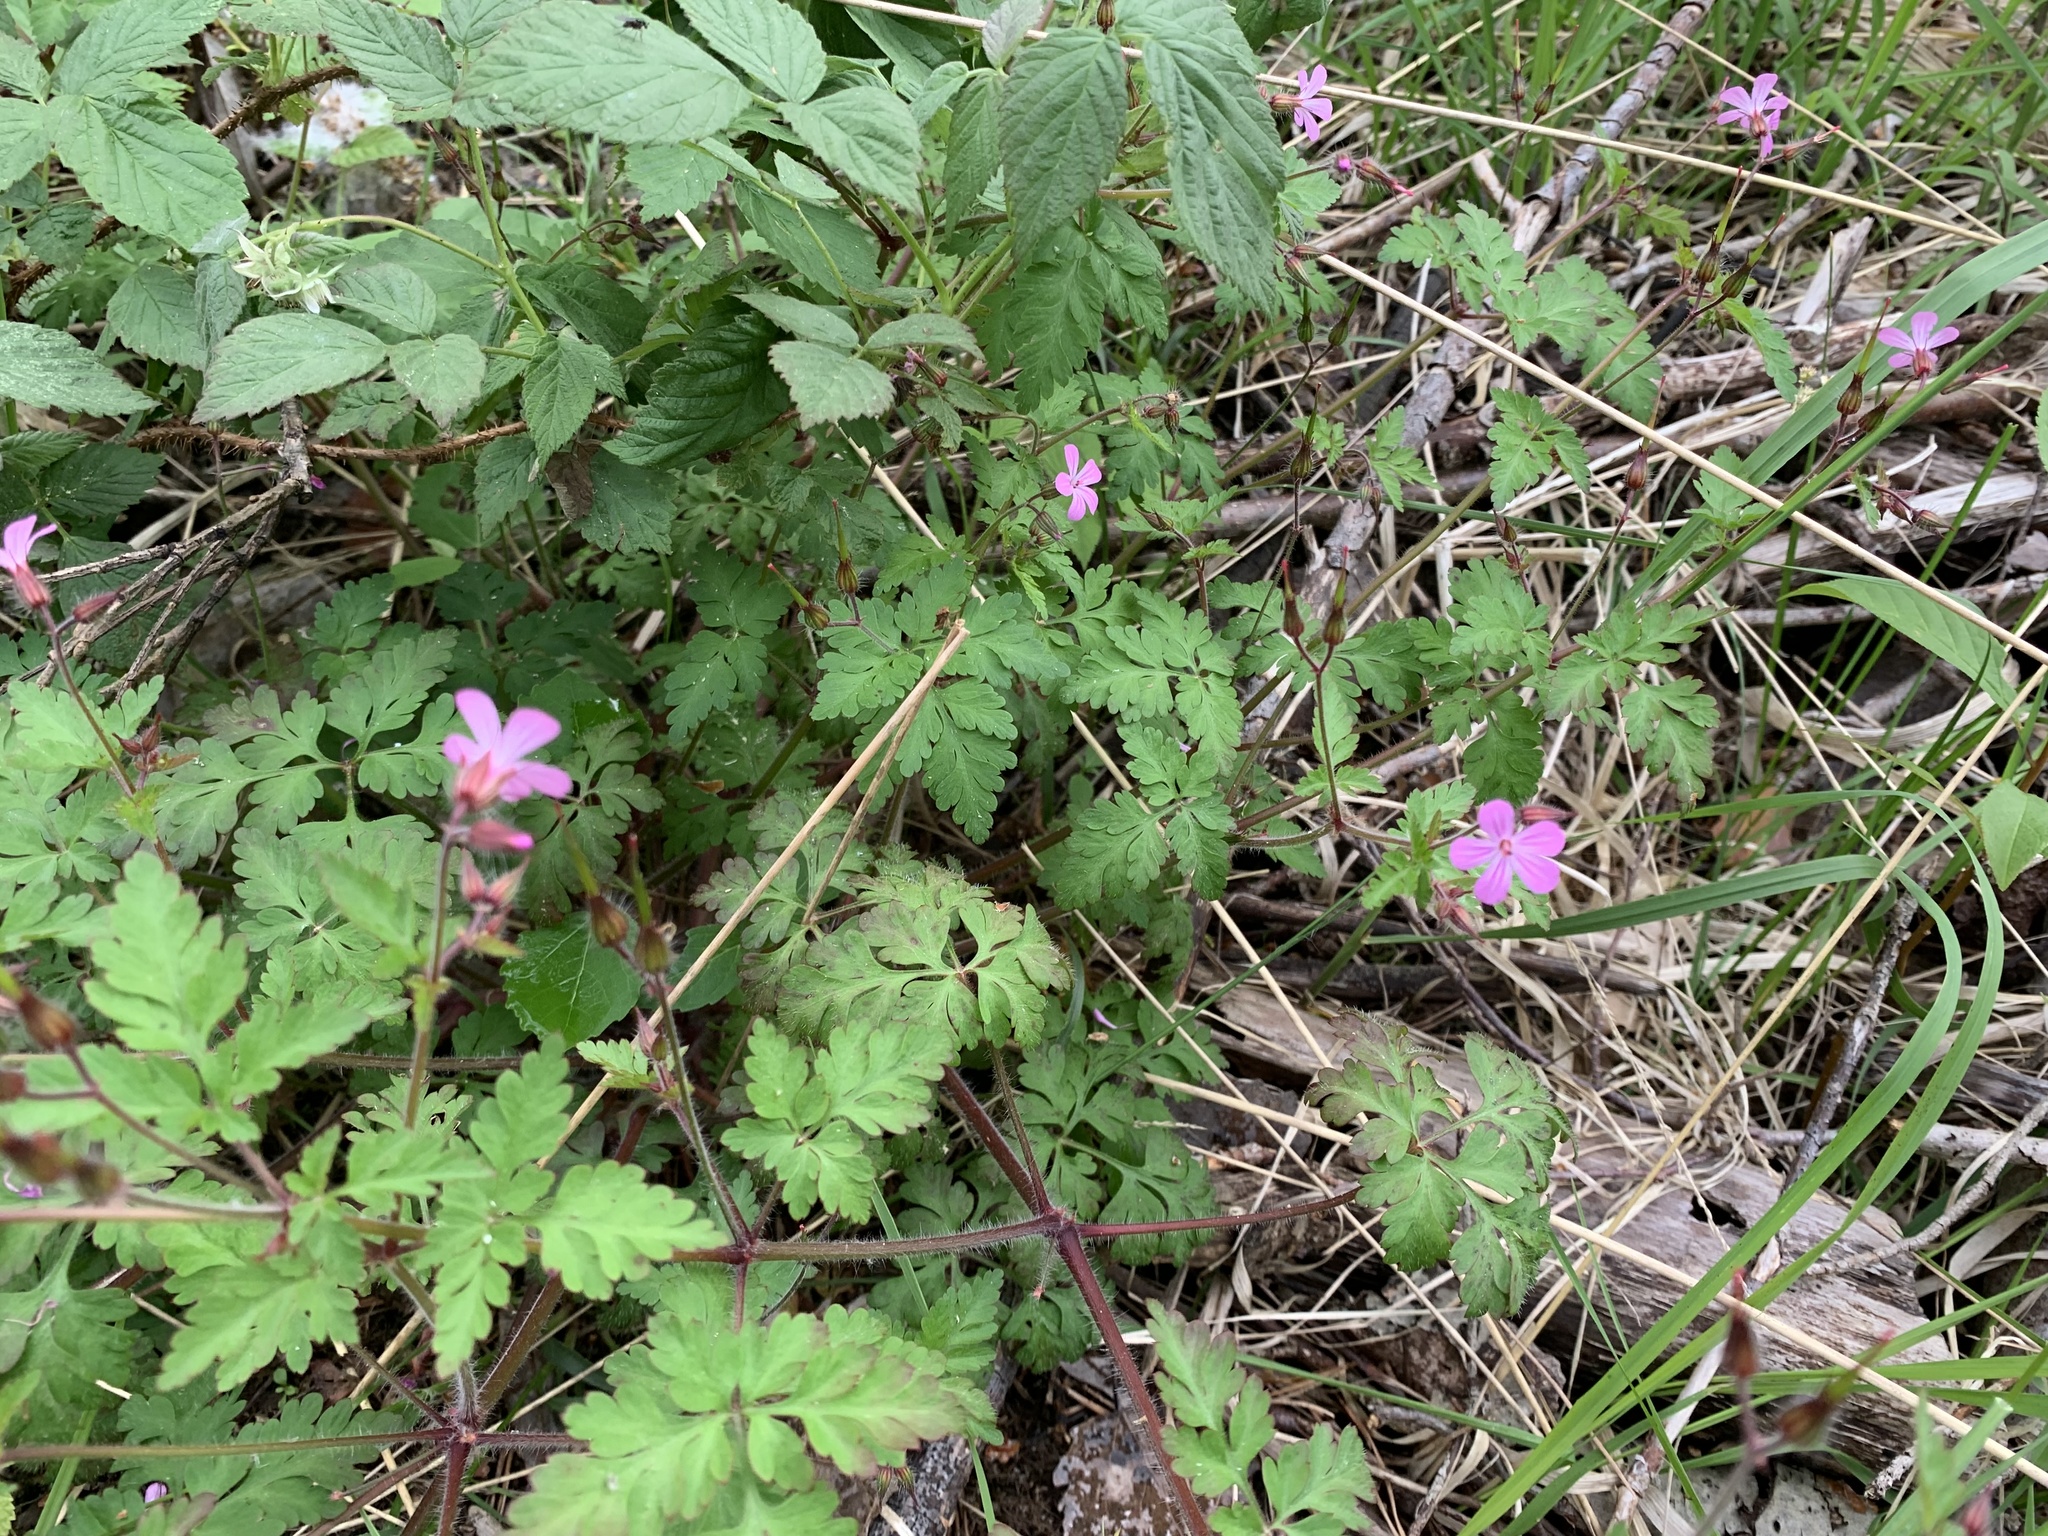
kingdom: Plantae
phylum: Tracheophyta
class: Magnoliopsida
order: Geraniales
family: Geraniaceae
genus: Geranium
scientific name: Geranium robertianum
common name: Herb-robert
